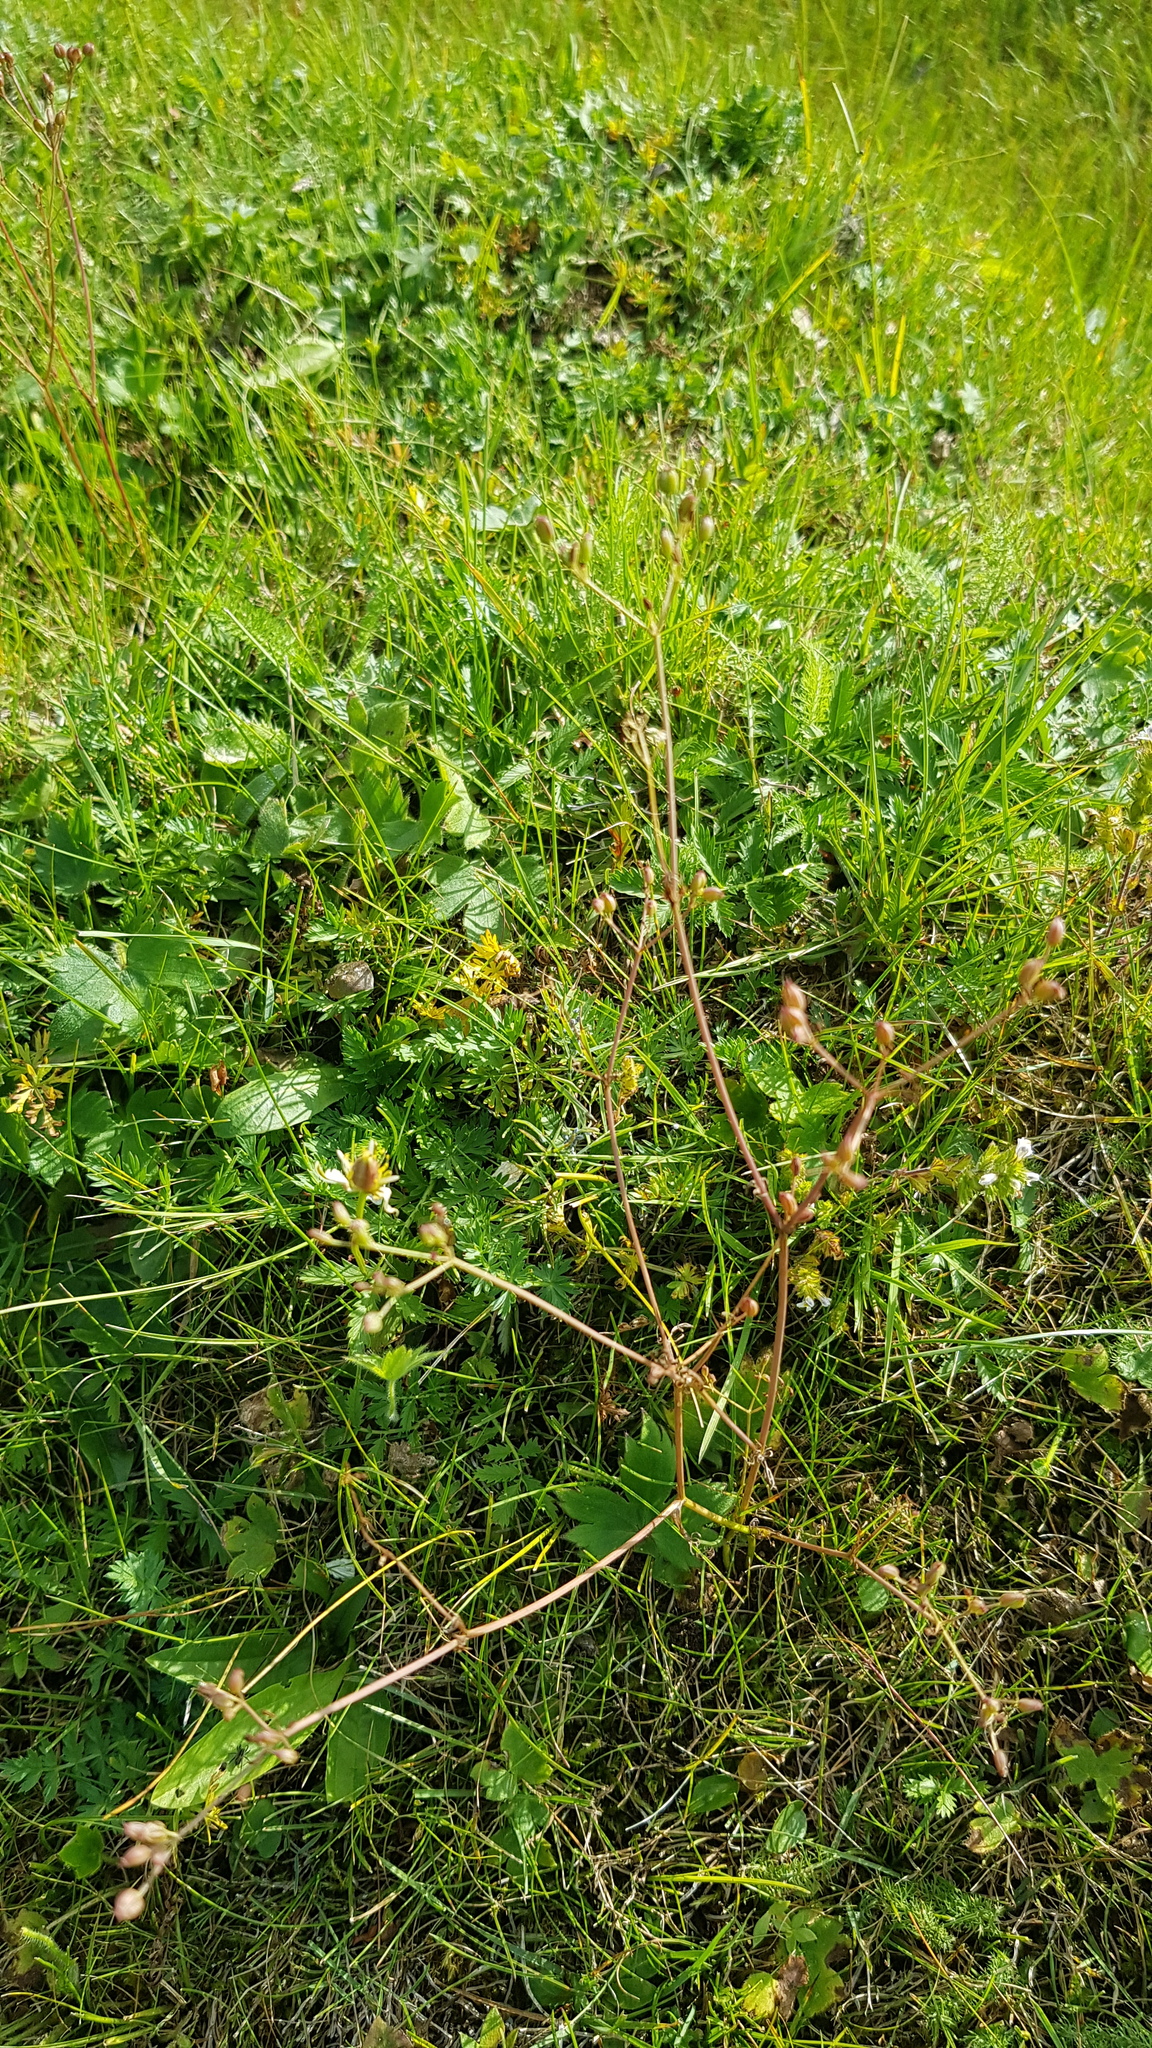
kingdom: Plantae
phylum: Tracheophyta
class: Magnoliopsida
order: Apiales
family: Apiaceae
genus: Carum
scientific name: Carum carvi
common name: Caraway
